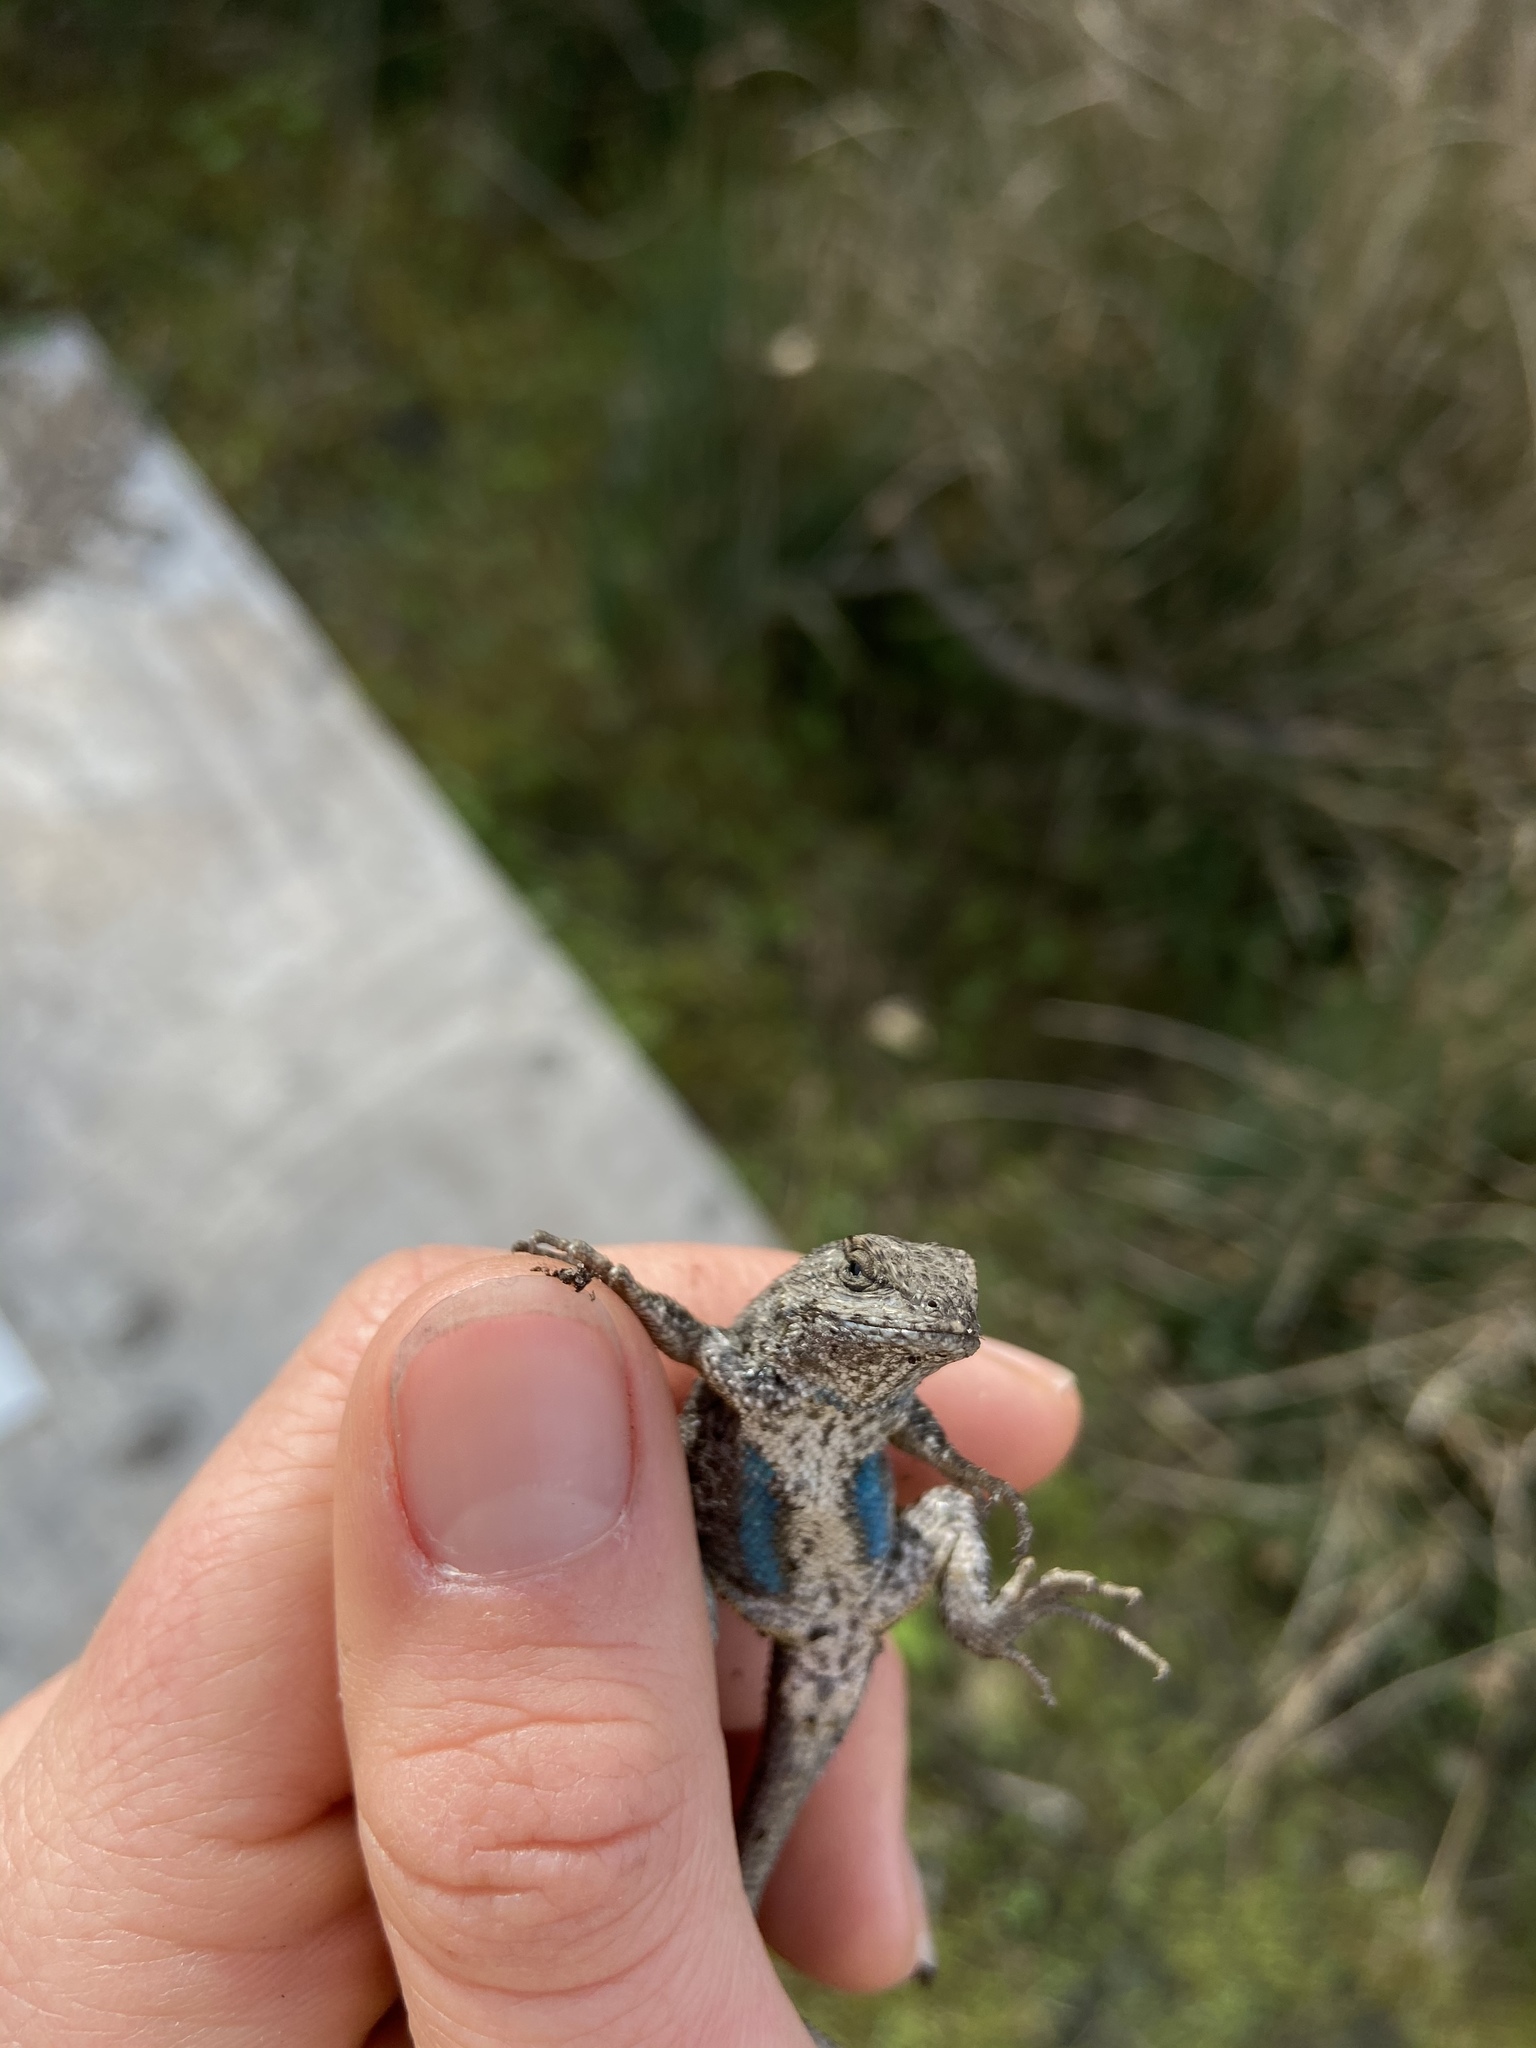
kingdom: Animalia
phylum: Chordata
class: Squamata
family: Phrynosomatidae
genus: Sceloporus
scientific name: Sceloporus occidentalis
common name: Western fence lizard
